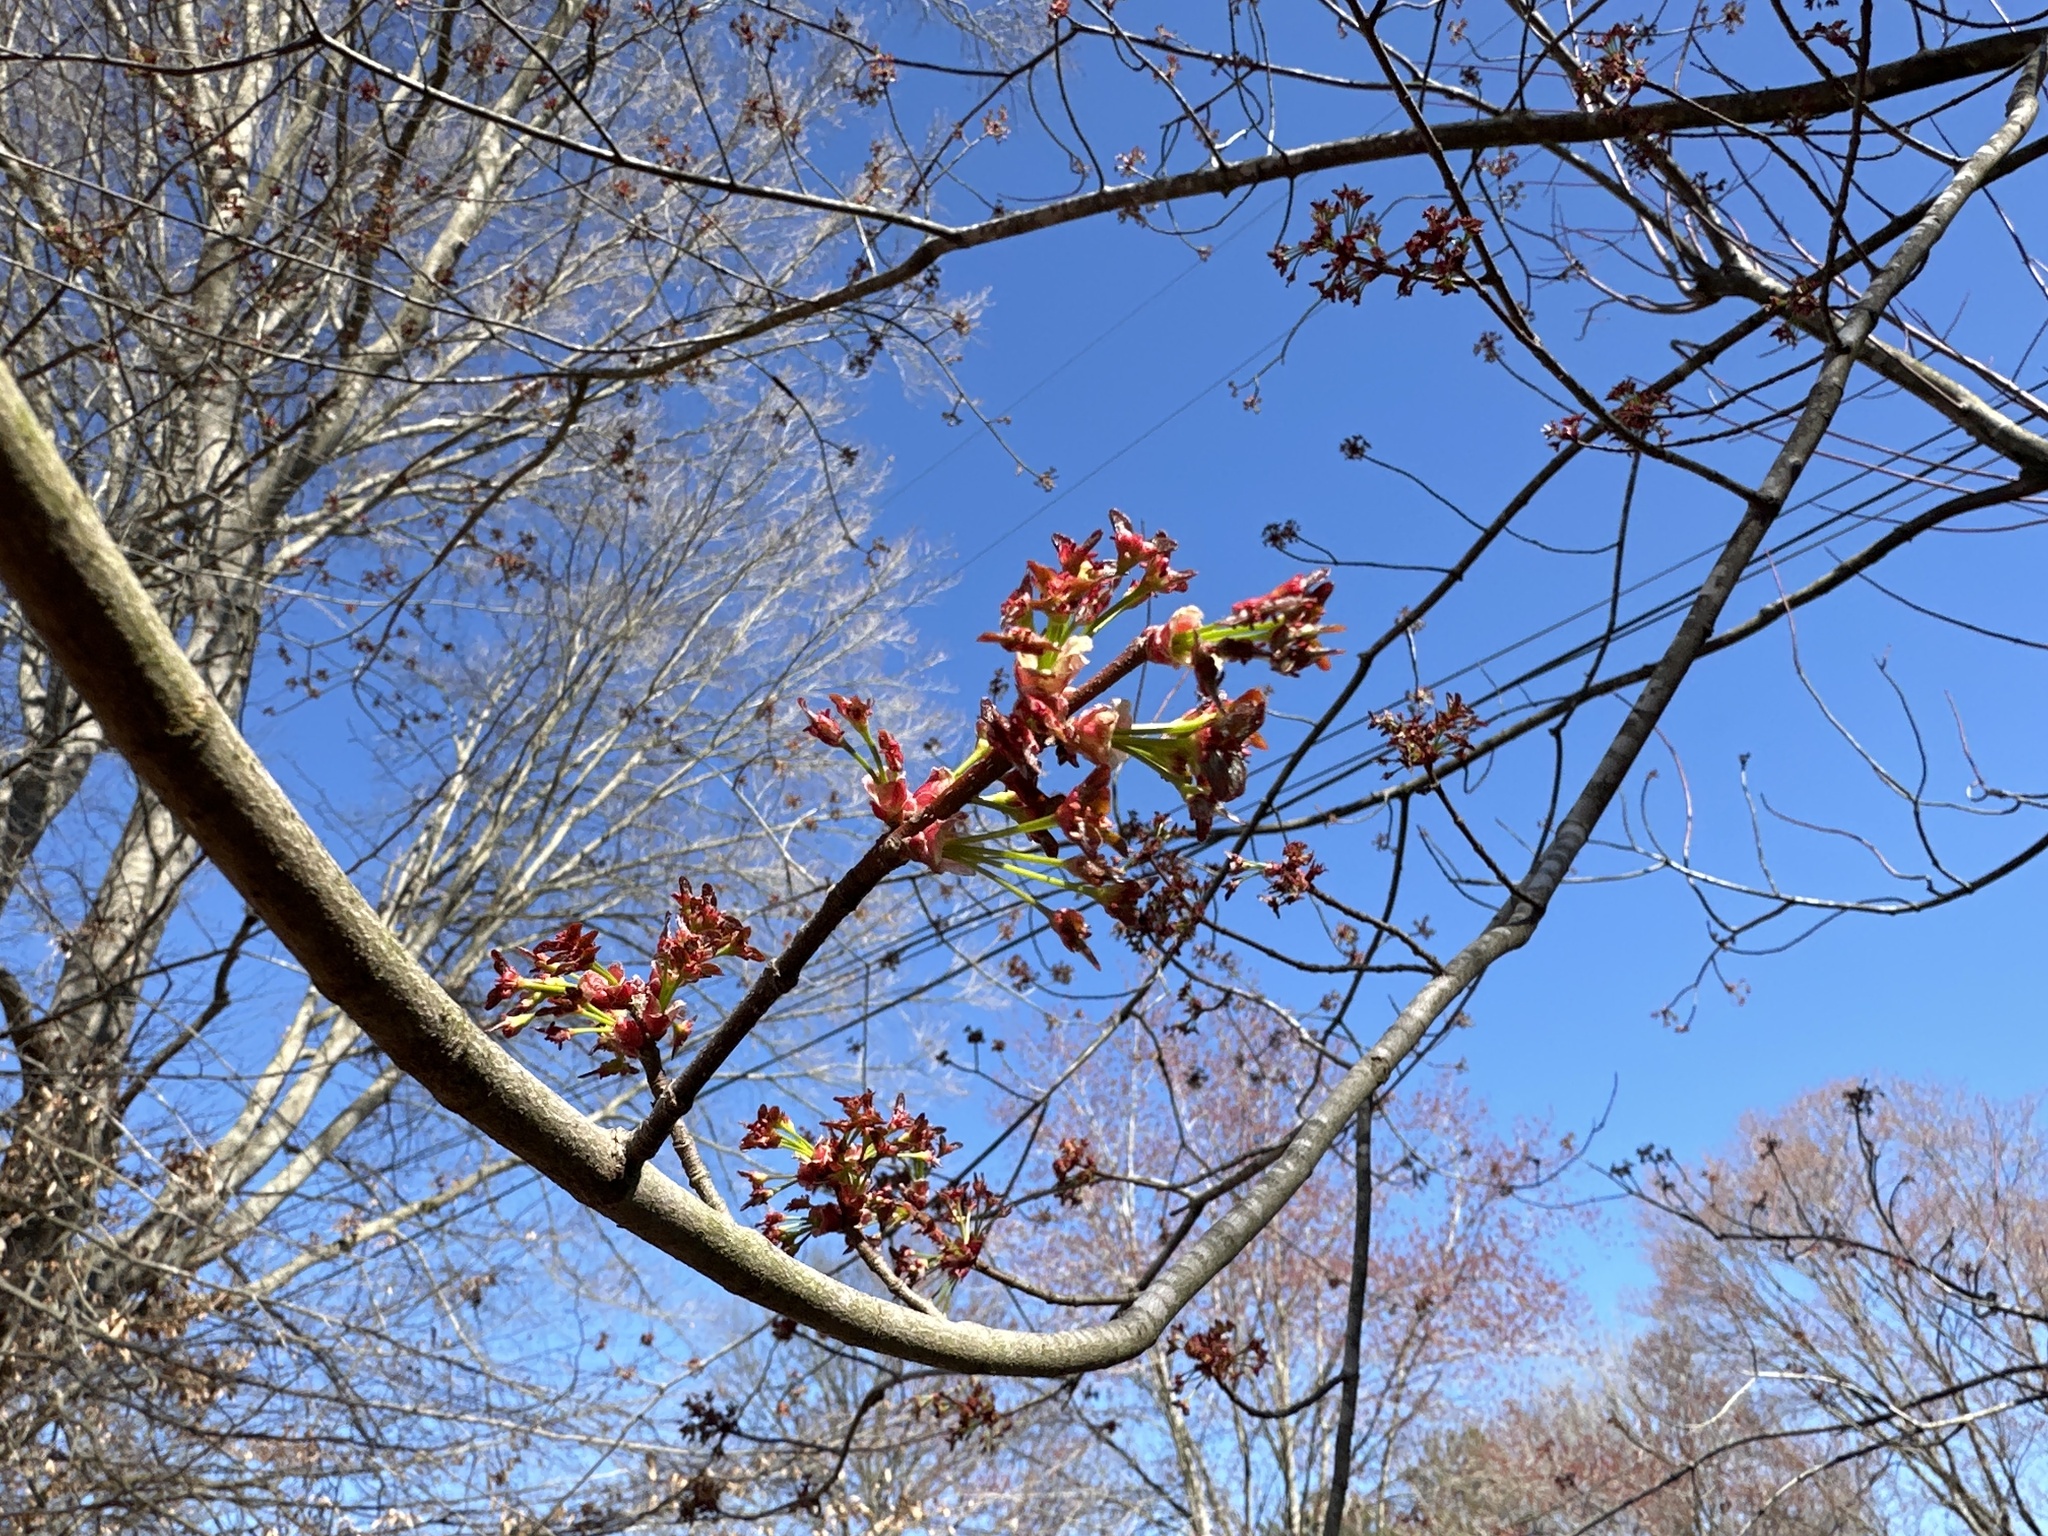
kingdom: Plantae
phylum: Tracheophyta
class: Magnoliopsida
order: Sapindales
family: Sapindaceae
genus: Acer
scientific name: Acer rubrum
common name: Red maple
